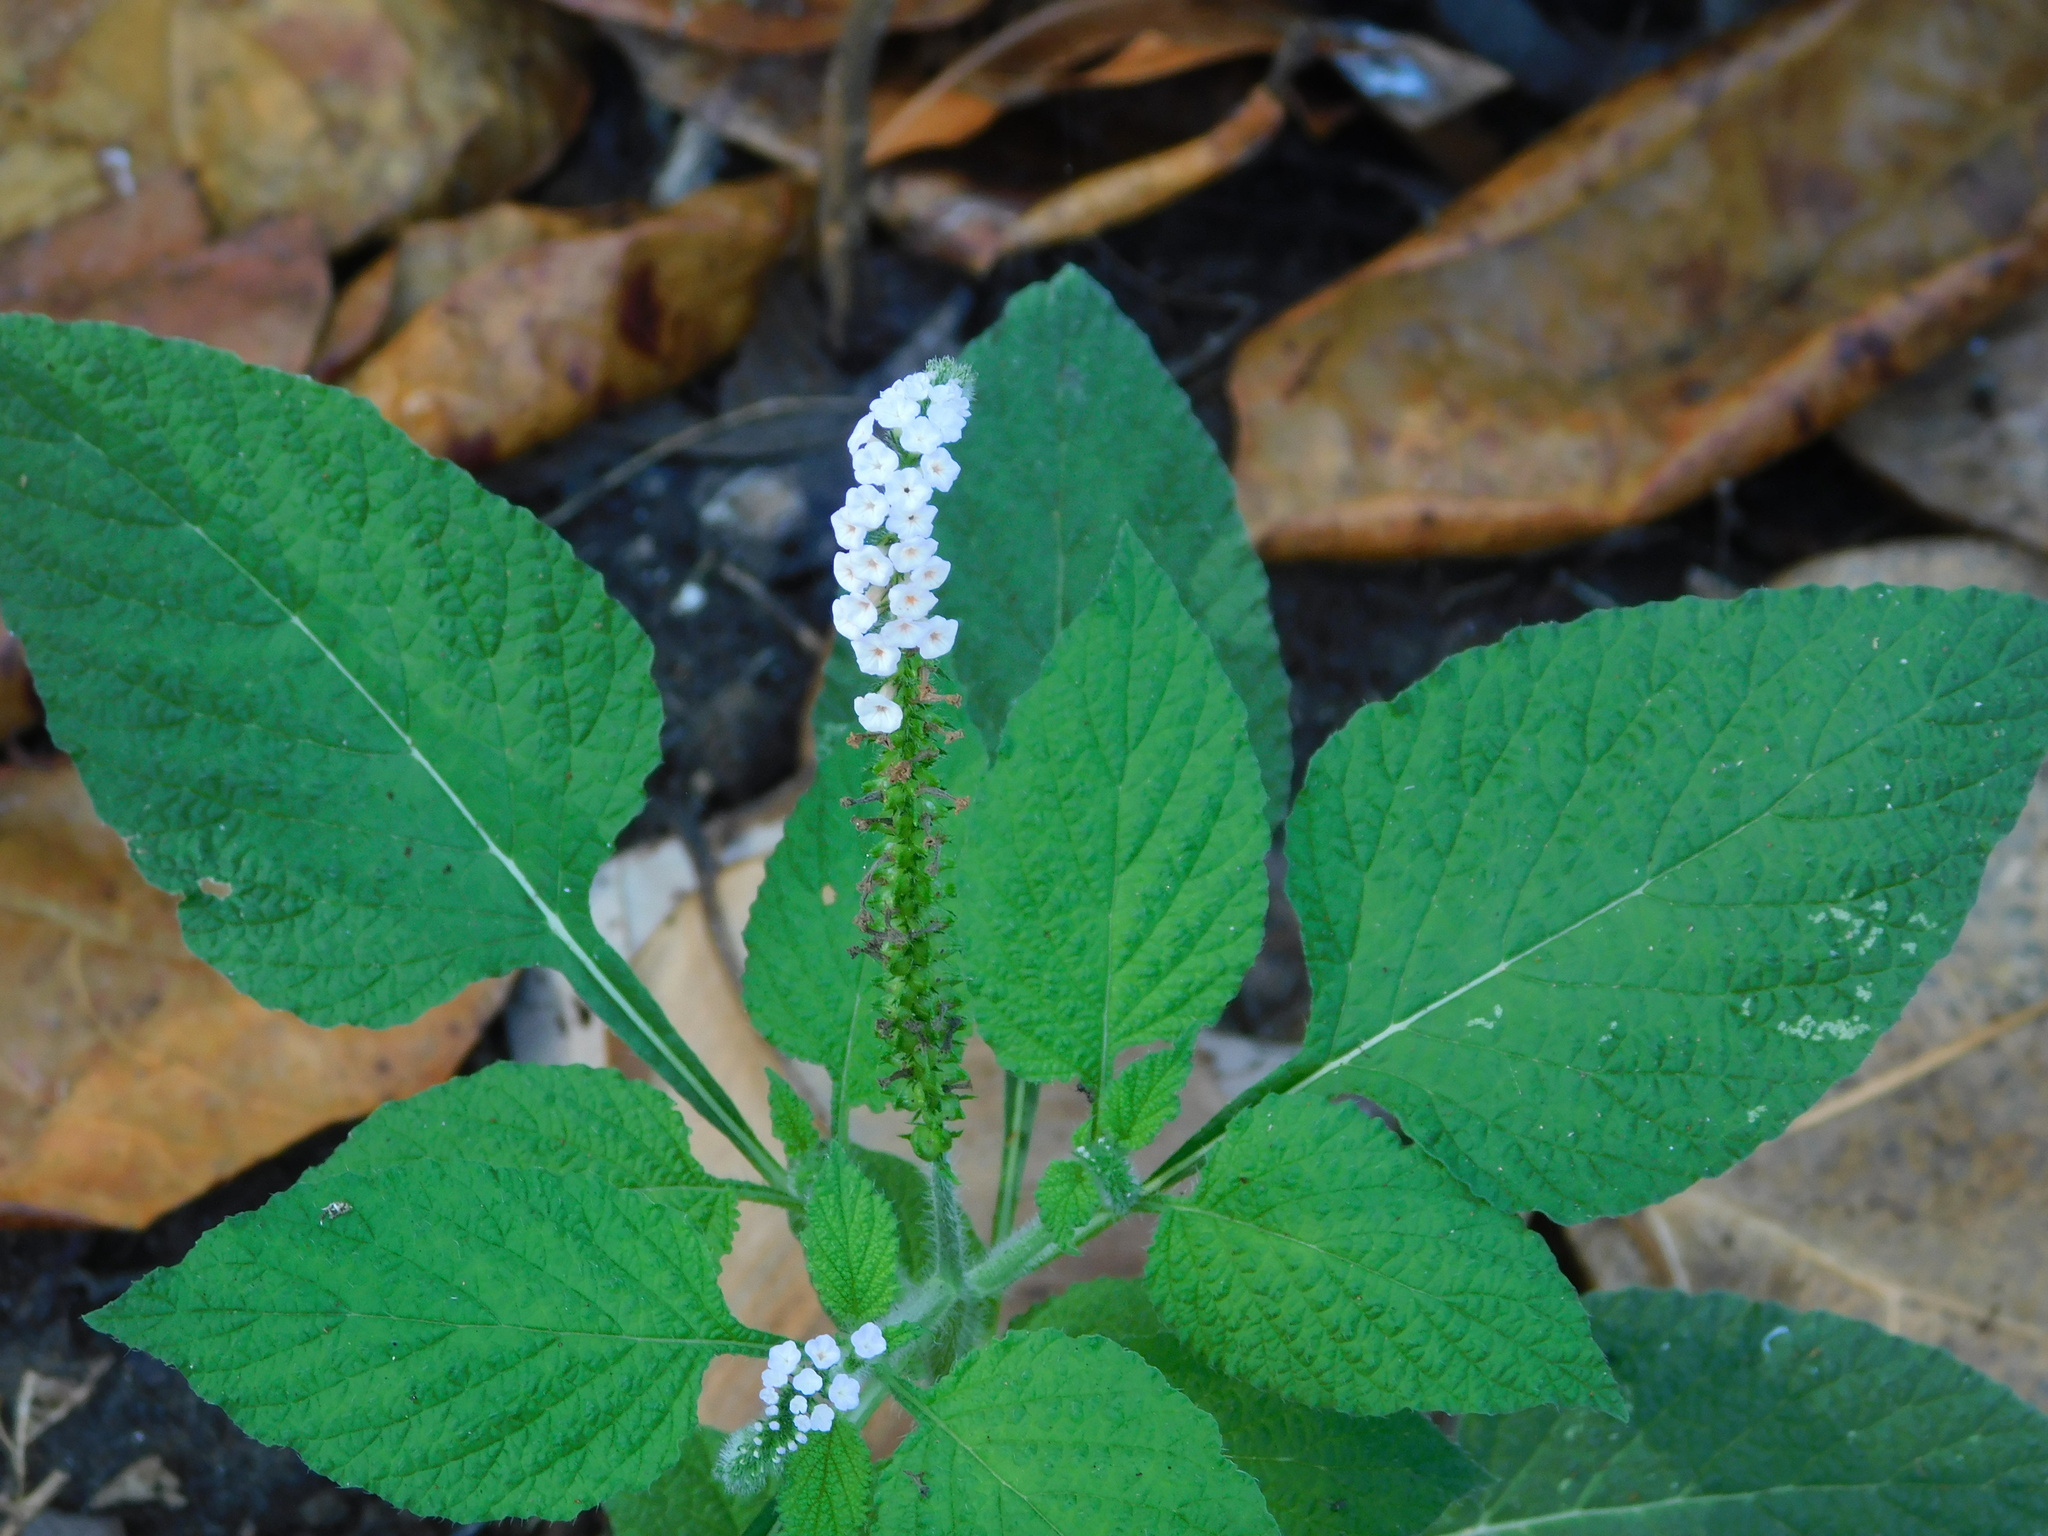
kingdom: Plantae
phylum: Tracheophyta
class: Magnoliopsida
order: Boraginales
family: Heliotropiaceae
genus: Heliotropium
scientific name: Heliotropium indicum
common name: Indian heliotrope
